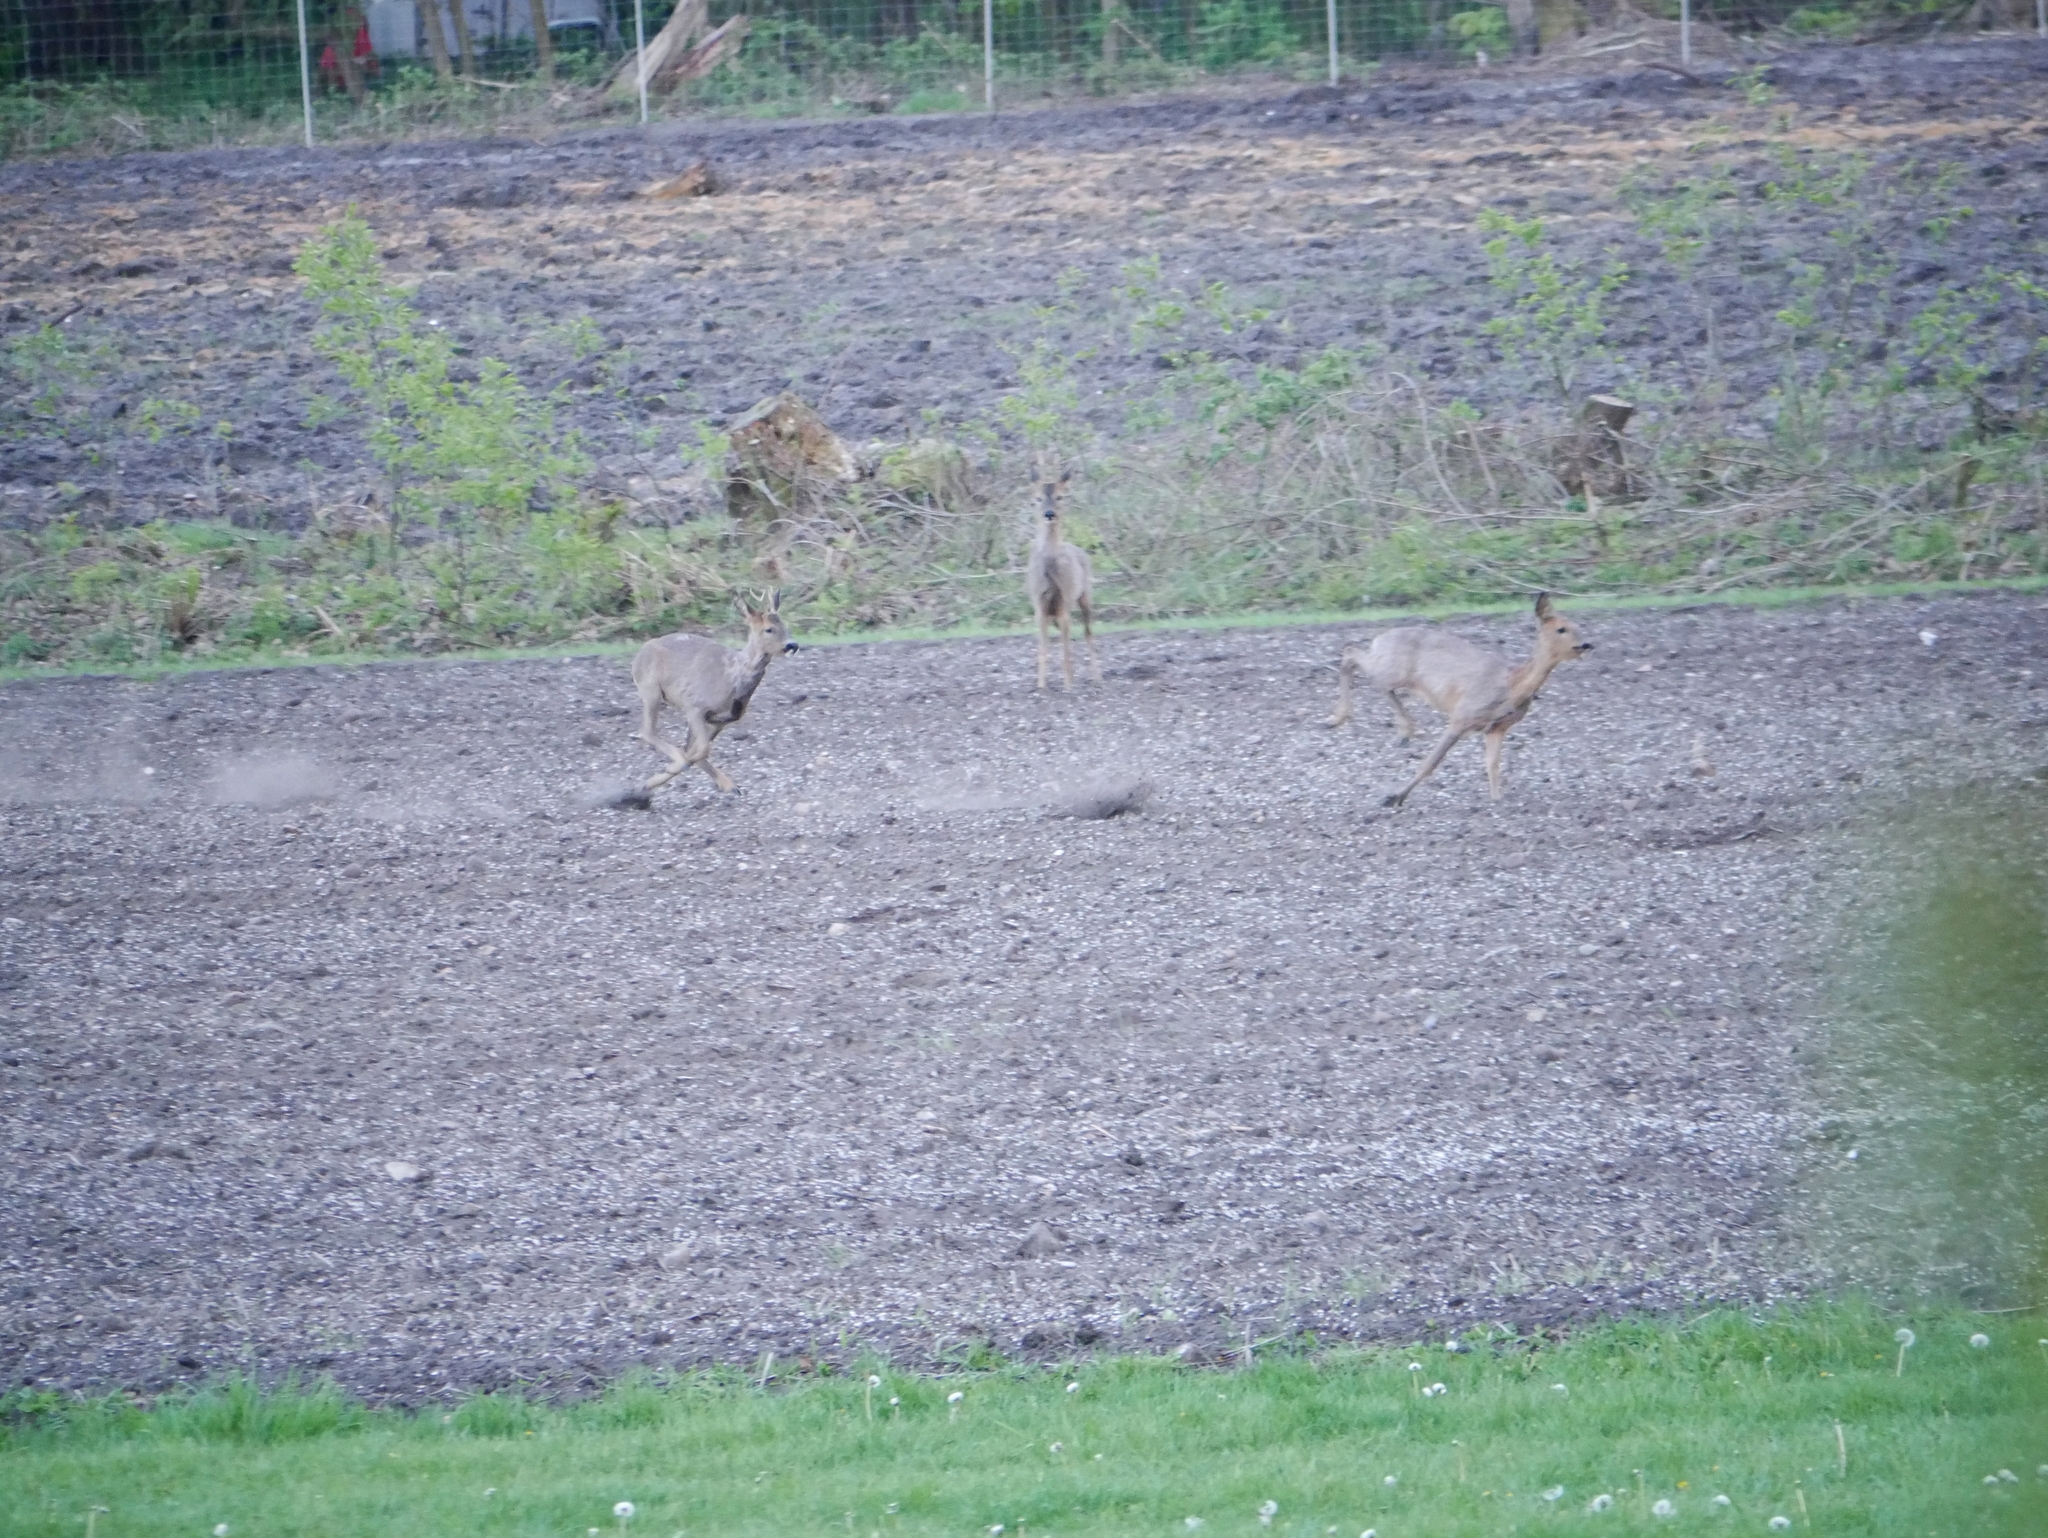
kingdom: Animalia
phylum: Chordata
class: Mammalia
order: Artiodactyla
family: Cervidae
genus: Capreolus
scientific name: Capreolus capreolus
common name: Western roe deer
